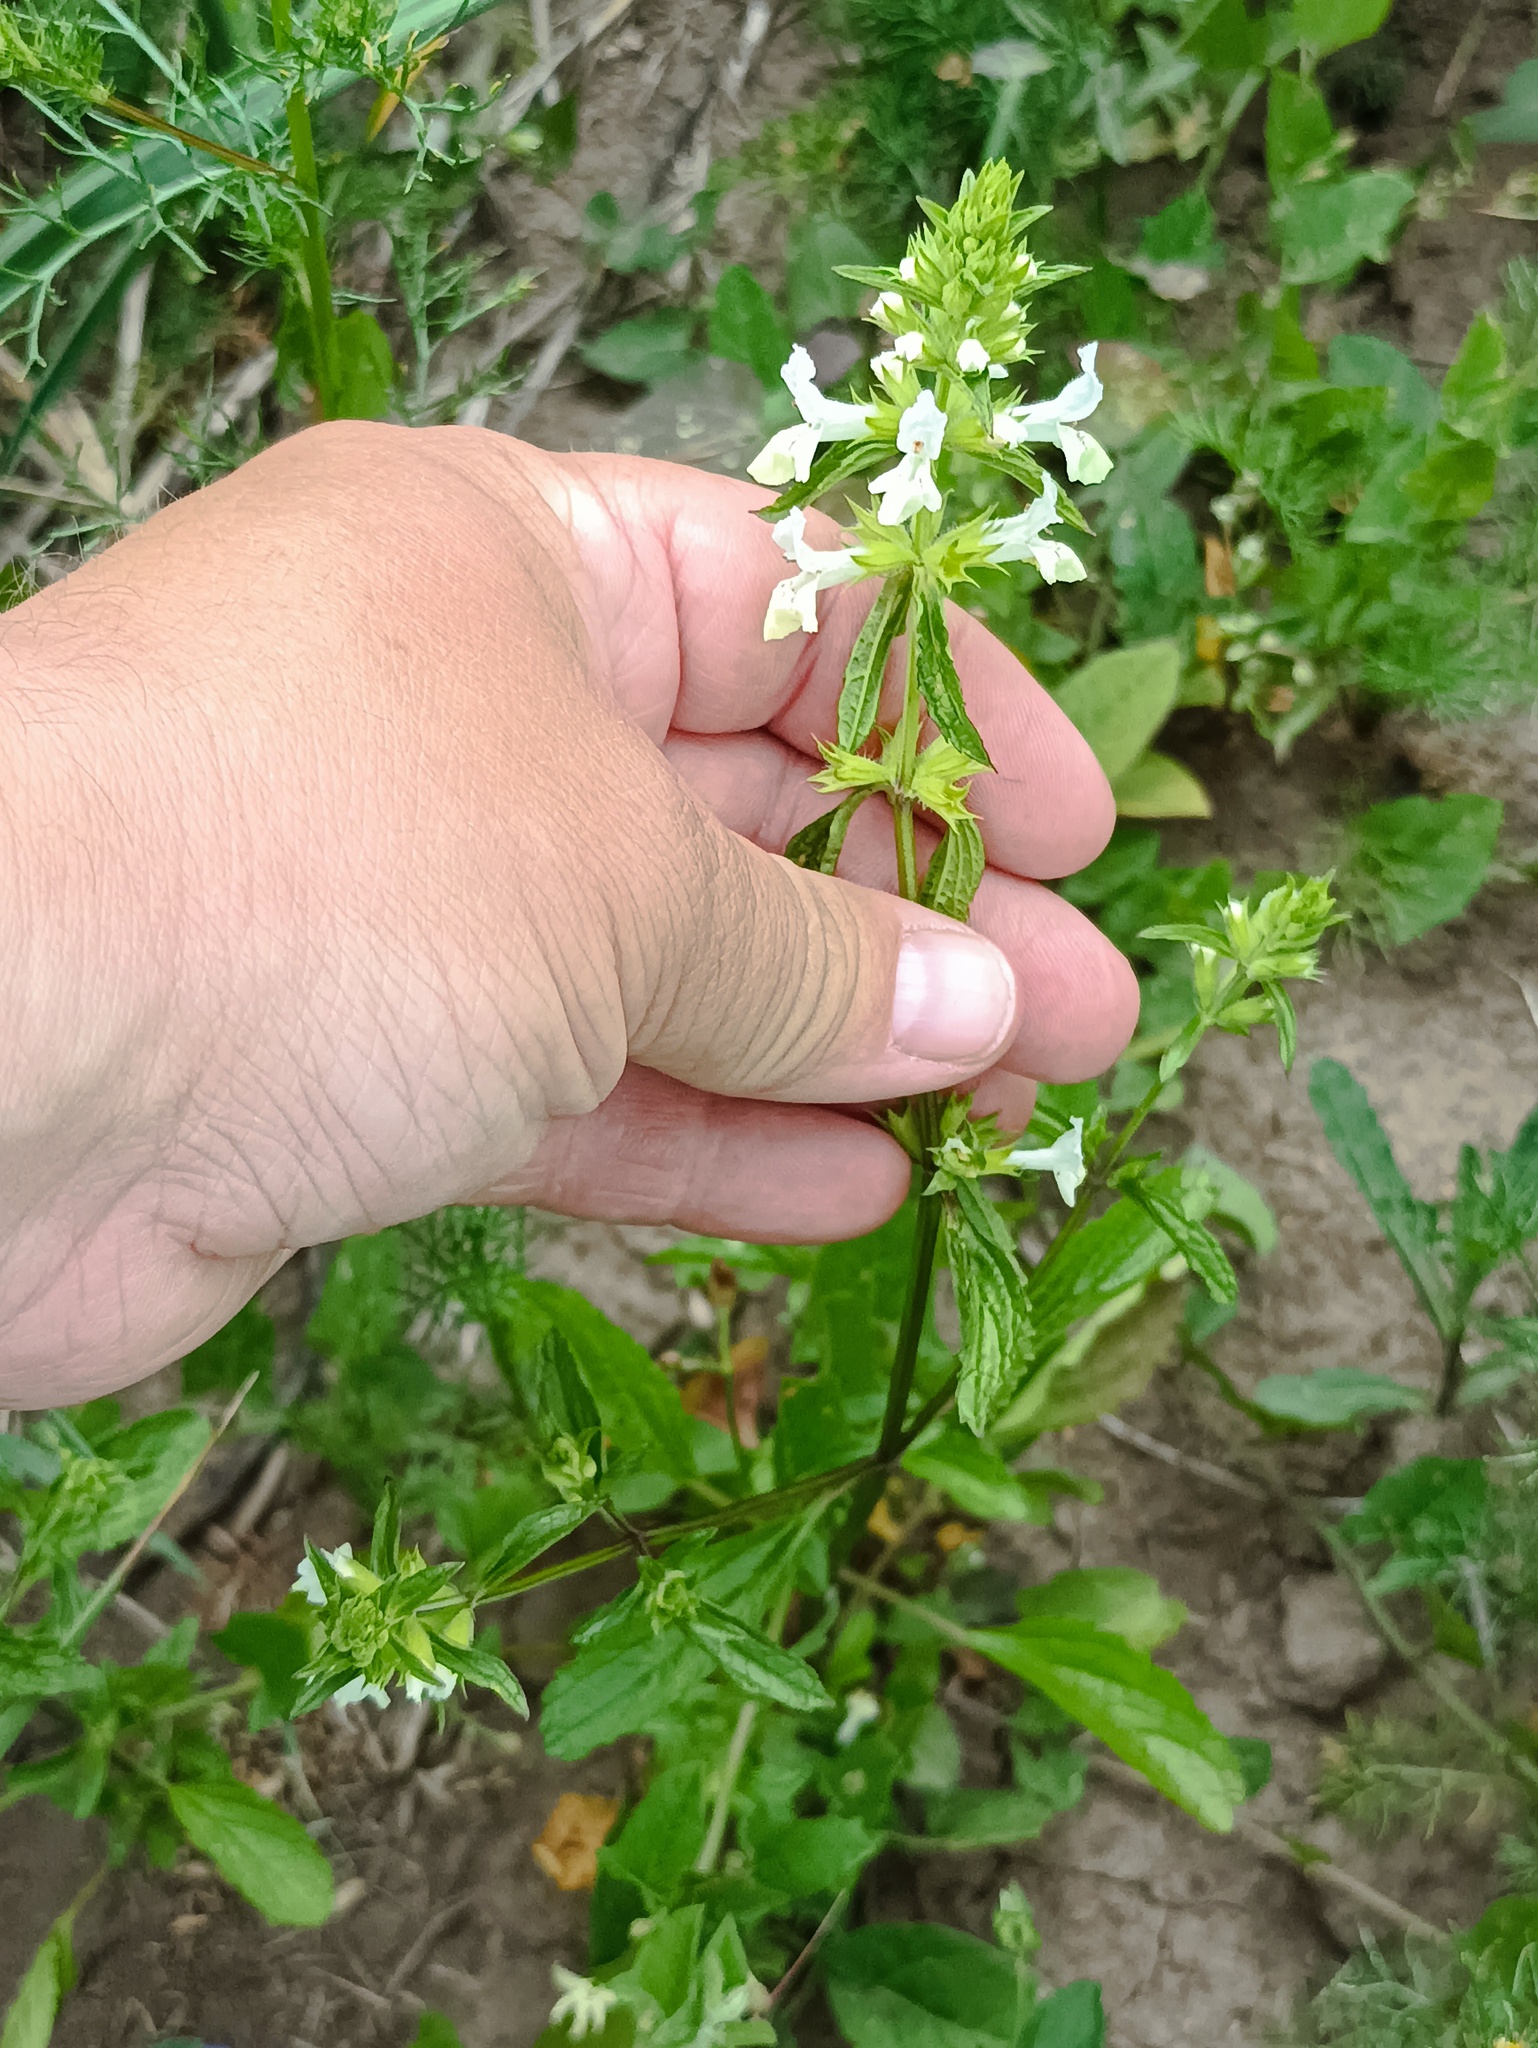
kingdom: Plantae
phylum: Tracheophyta
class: Magnoliopsida
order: Lamiales
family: Lamiaceae
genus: Stachys
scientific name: Stachys annua
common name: Annual yellow-woundwort
